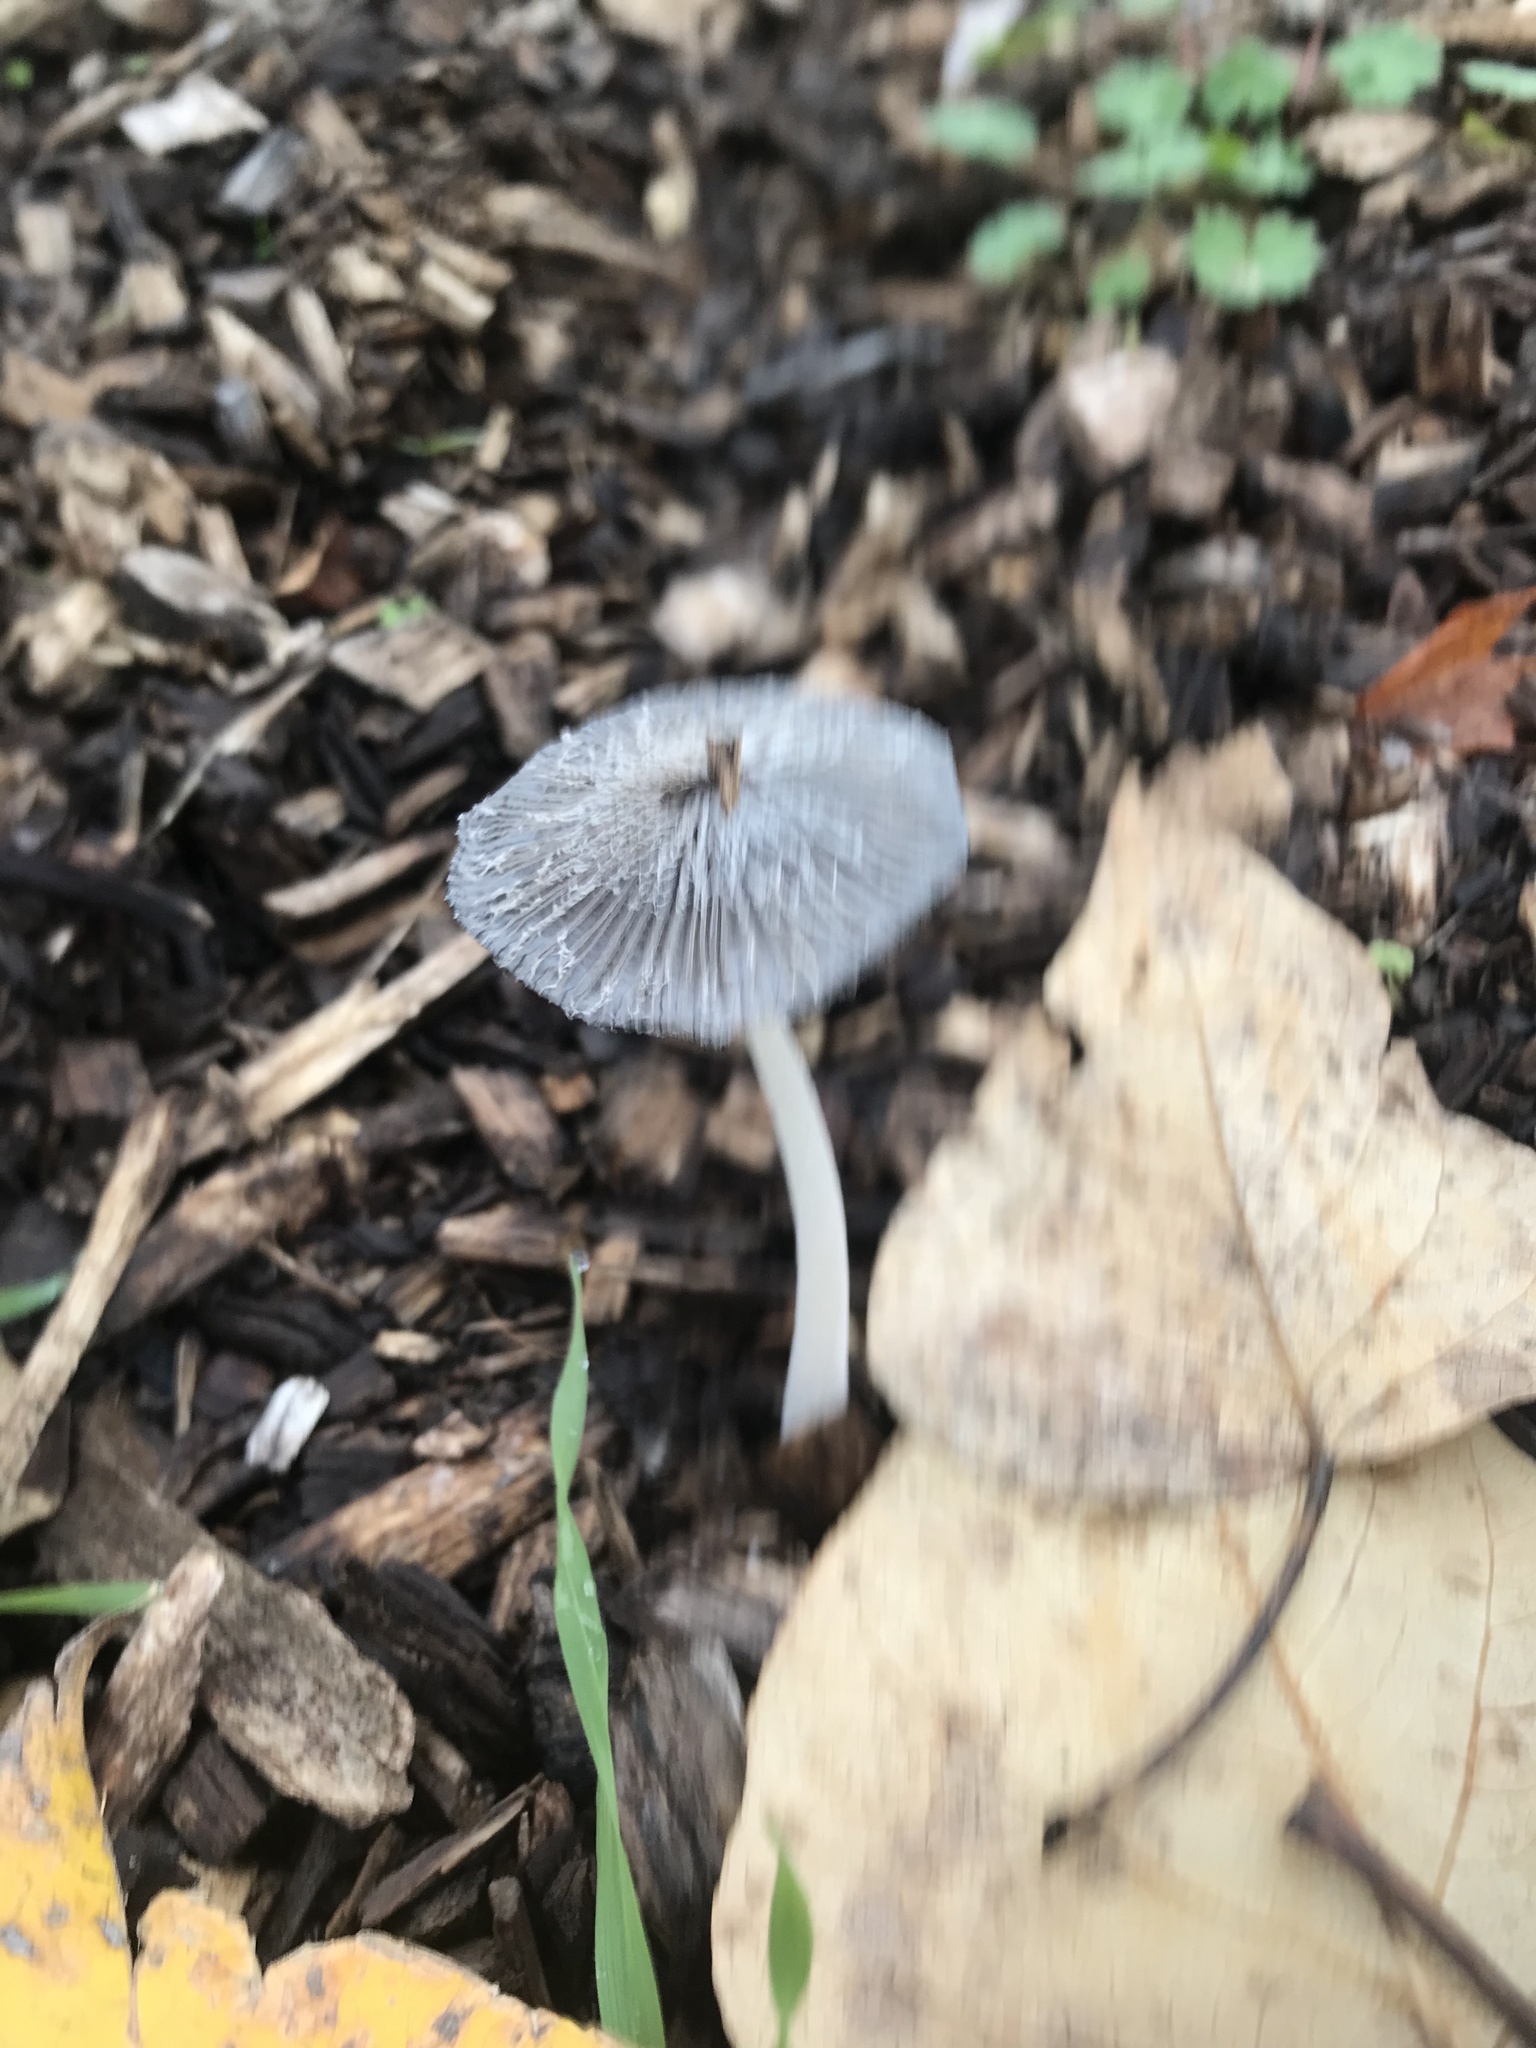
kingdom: Fungi
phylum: Basidiomycota
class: Agaricomycetes
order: Agaricales
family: Psathyrellaceae
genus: Coprinopsis
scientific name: Coprinopsis lagopus
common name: Hare'sfoot inkcap
